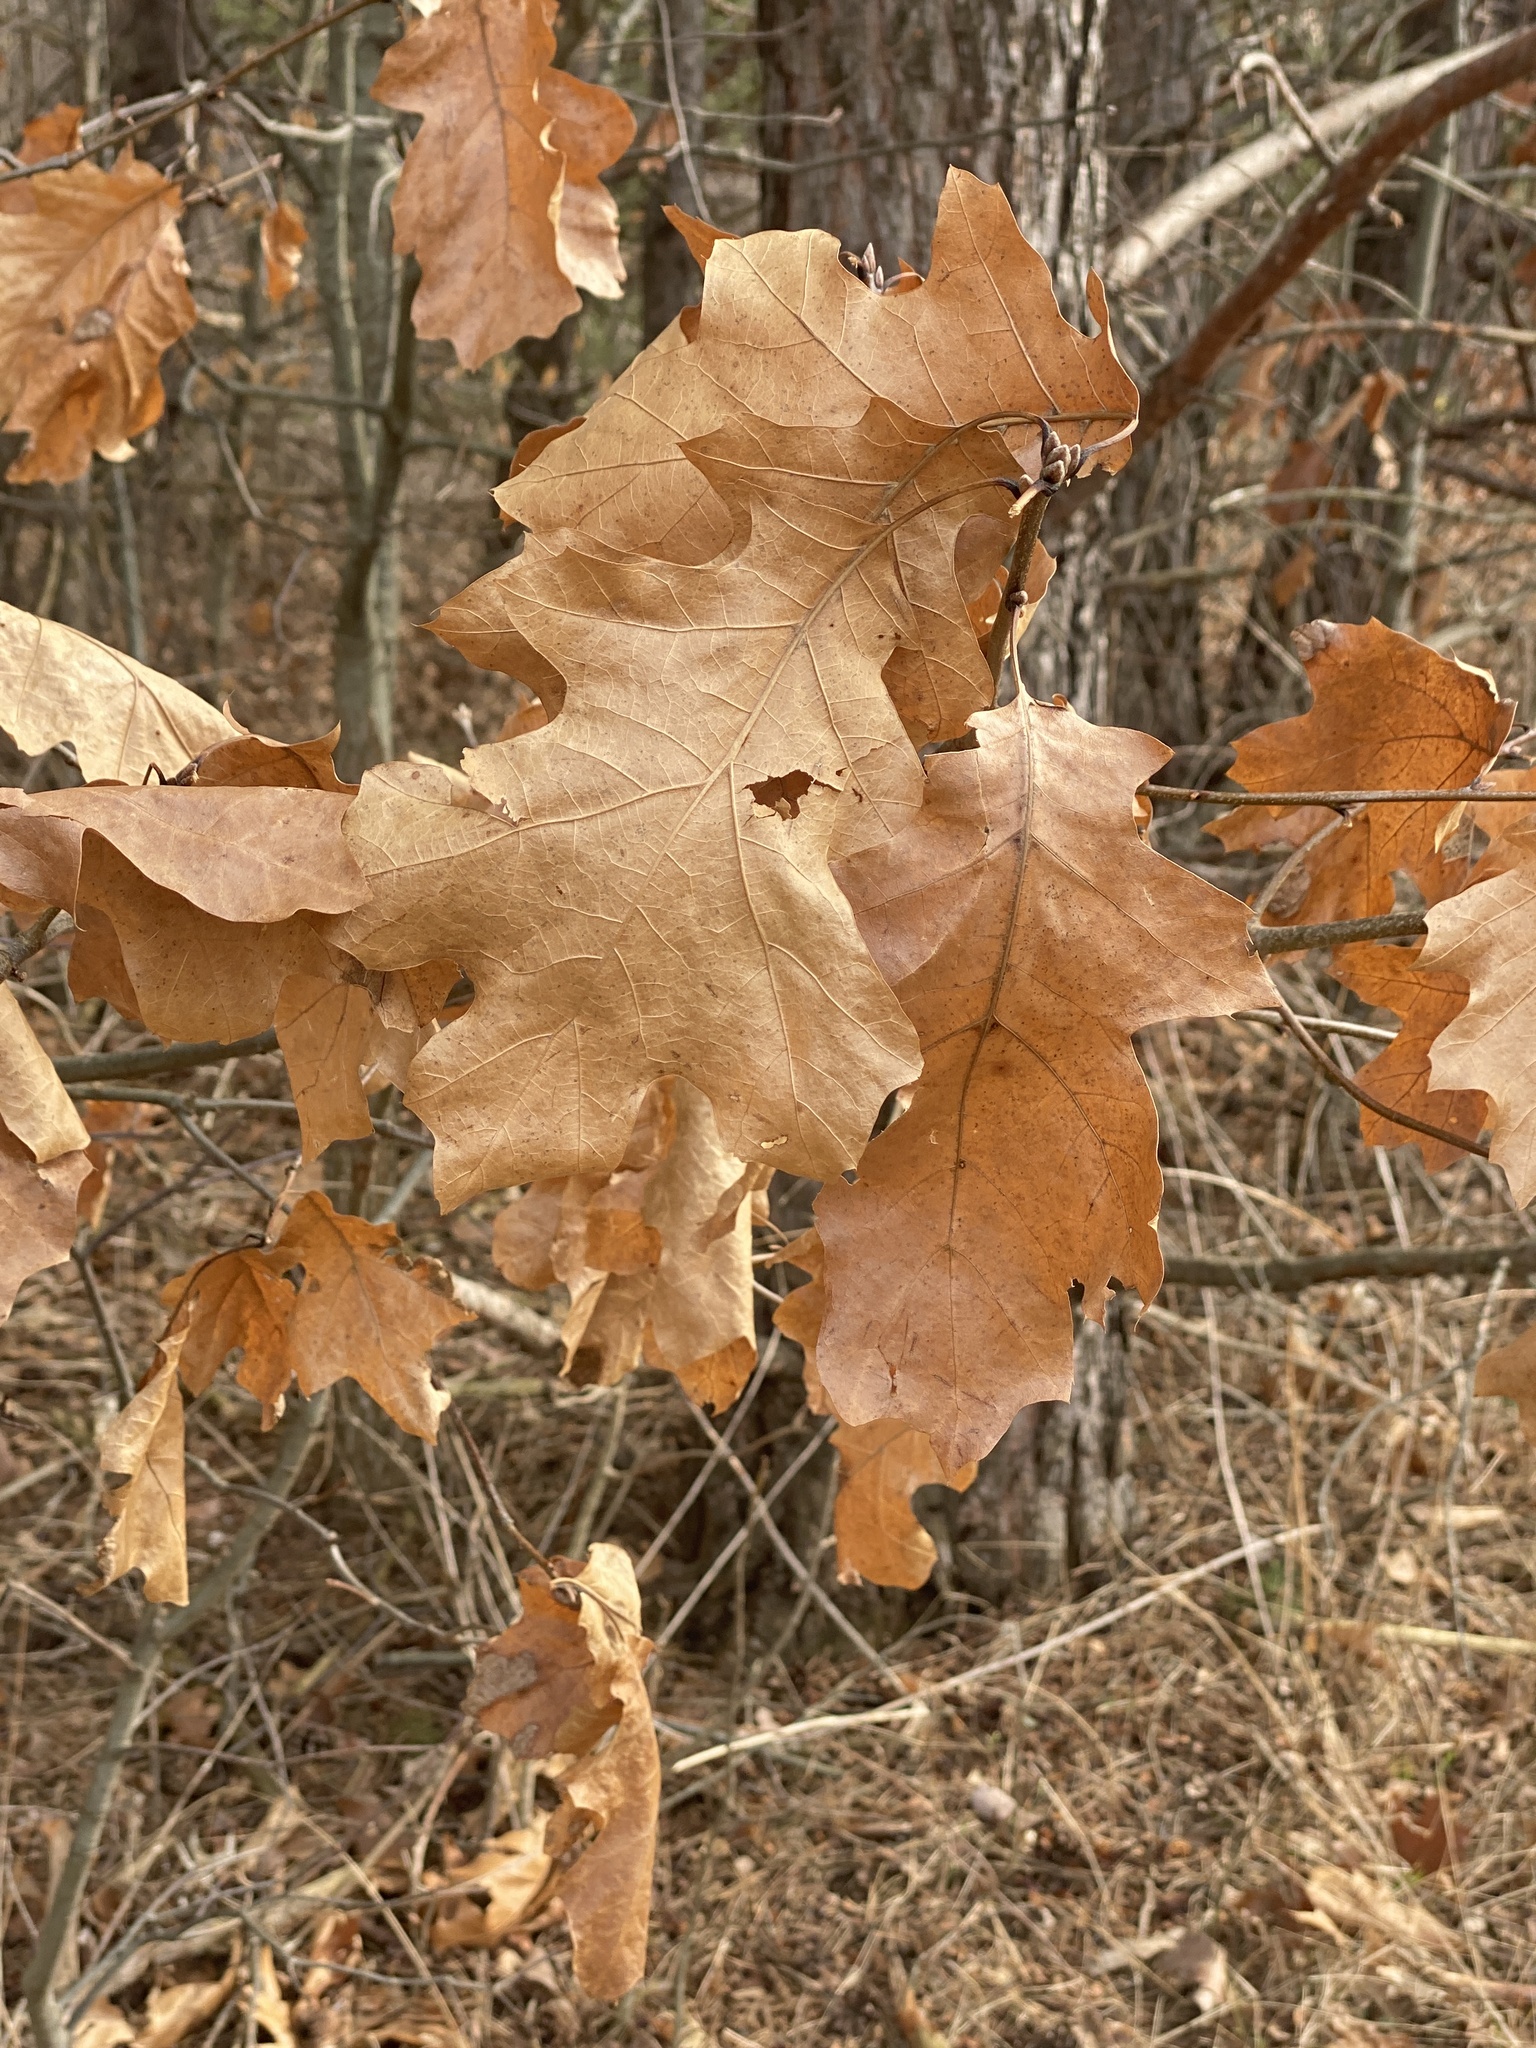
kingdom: Plantae
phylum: Tracheophyta
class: Magnoliopsida
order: Fagales
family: Fagaceae
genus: Quercus
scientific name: Quercus velutina
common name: Black oak
